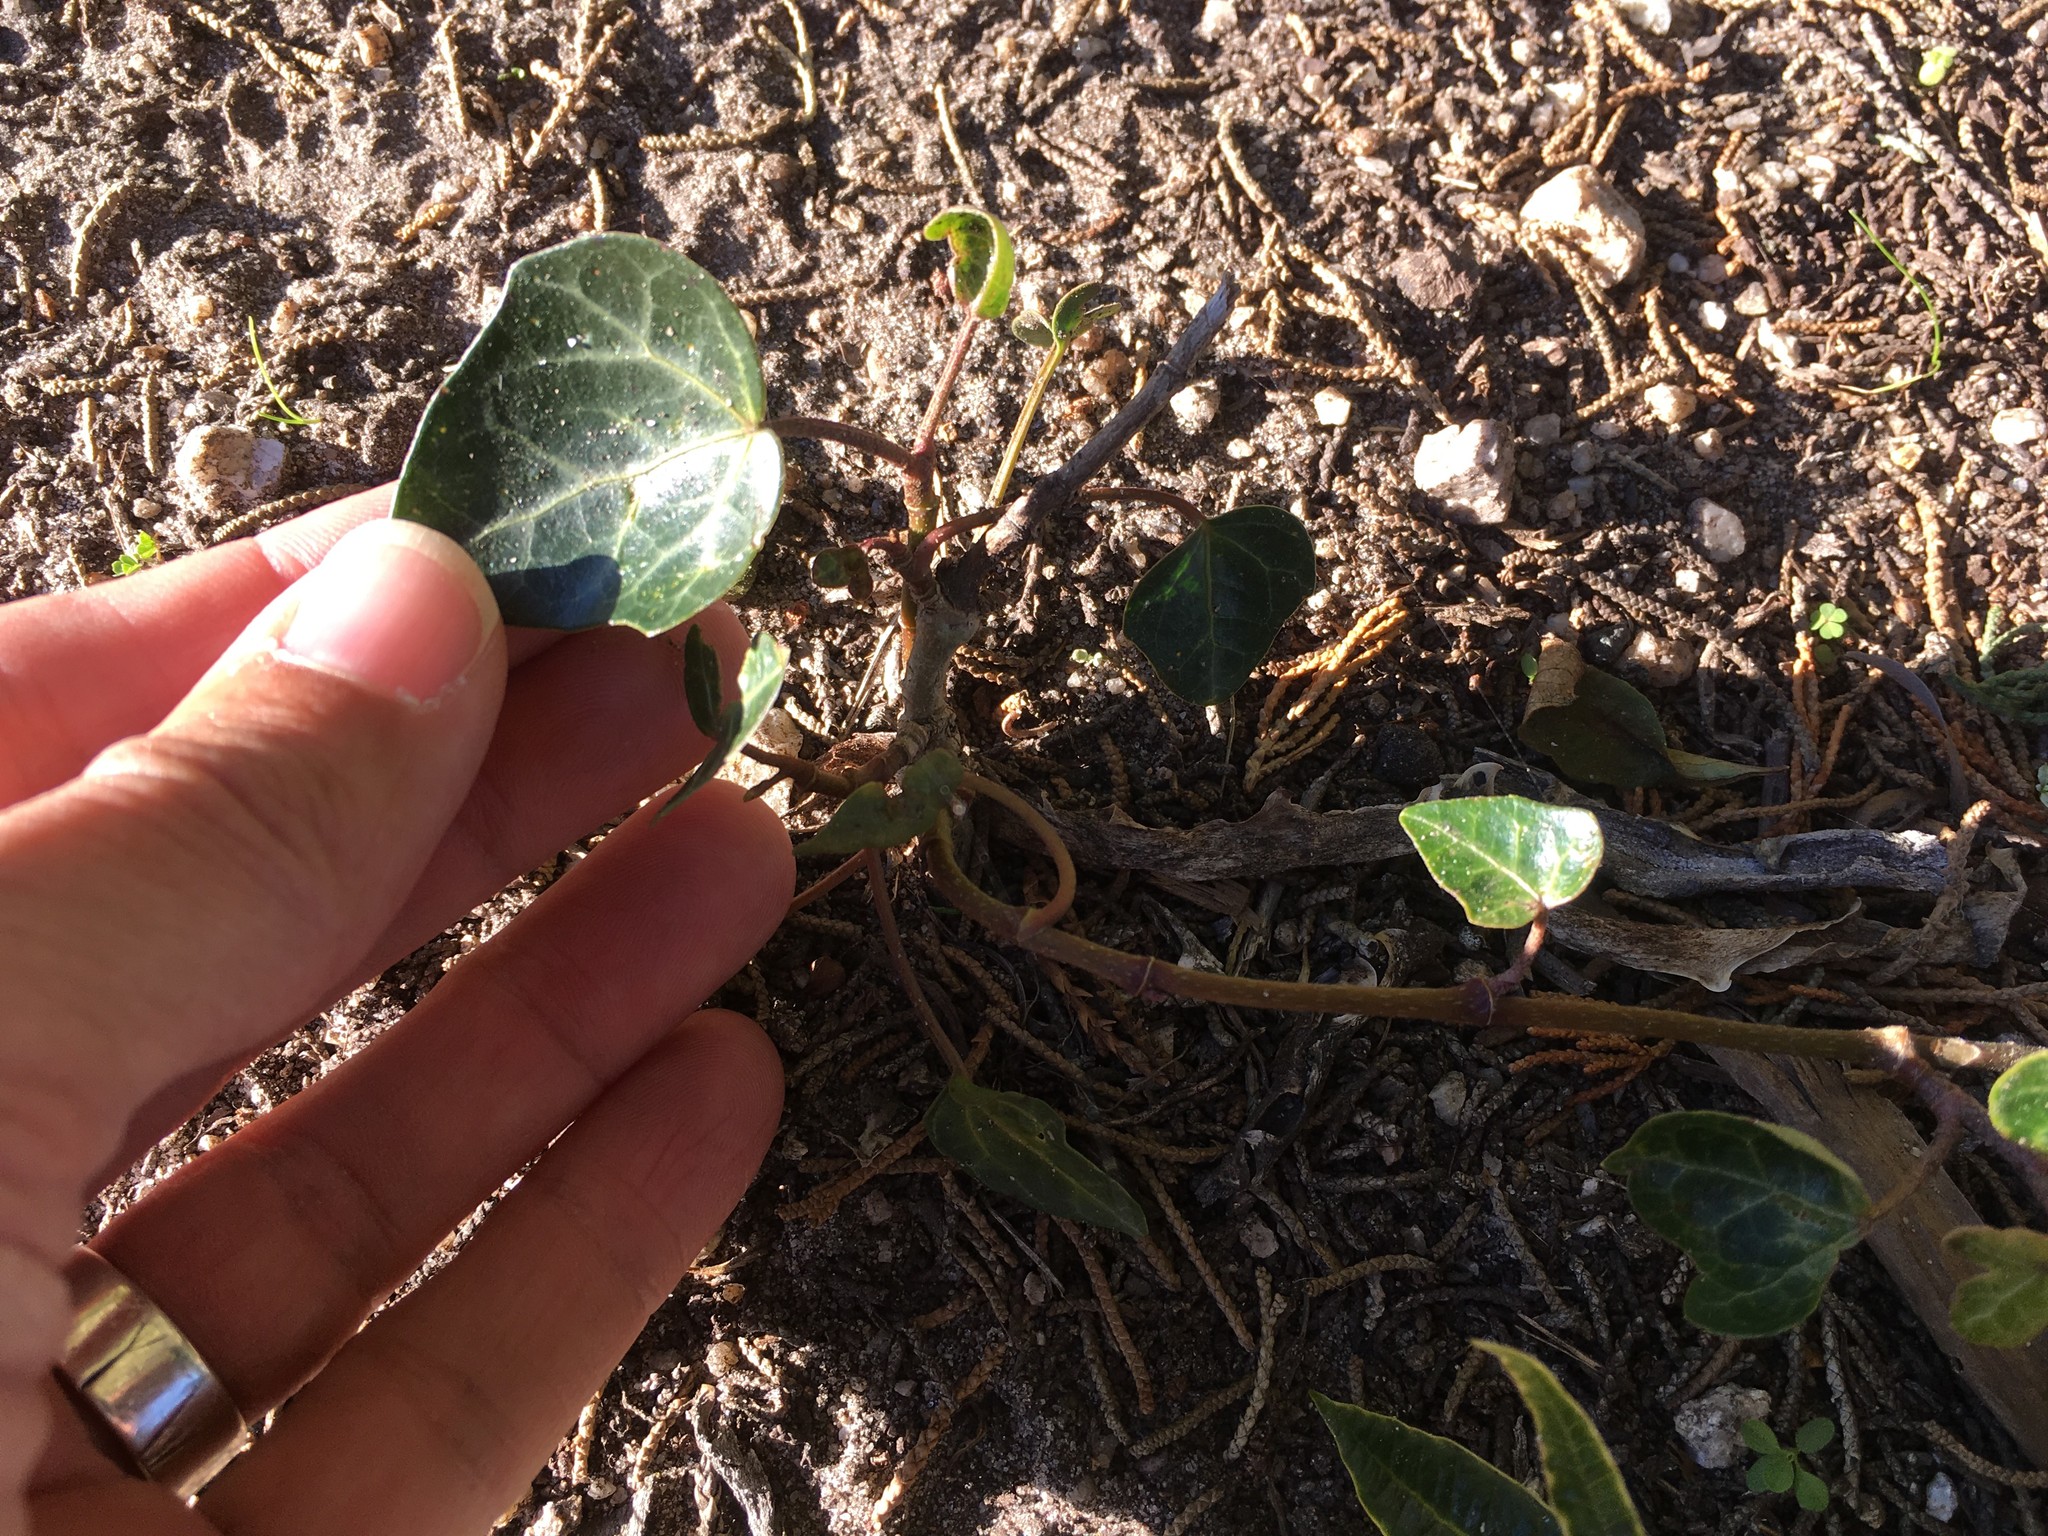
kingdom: Plantae
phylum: Tracheophyta
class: Magnoliopsida
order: Apiales
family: Araliaceae
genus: Hedera
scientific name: Hedera helix
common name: Ivy
